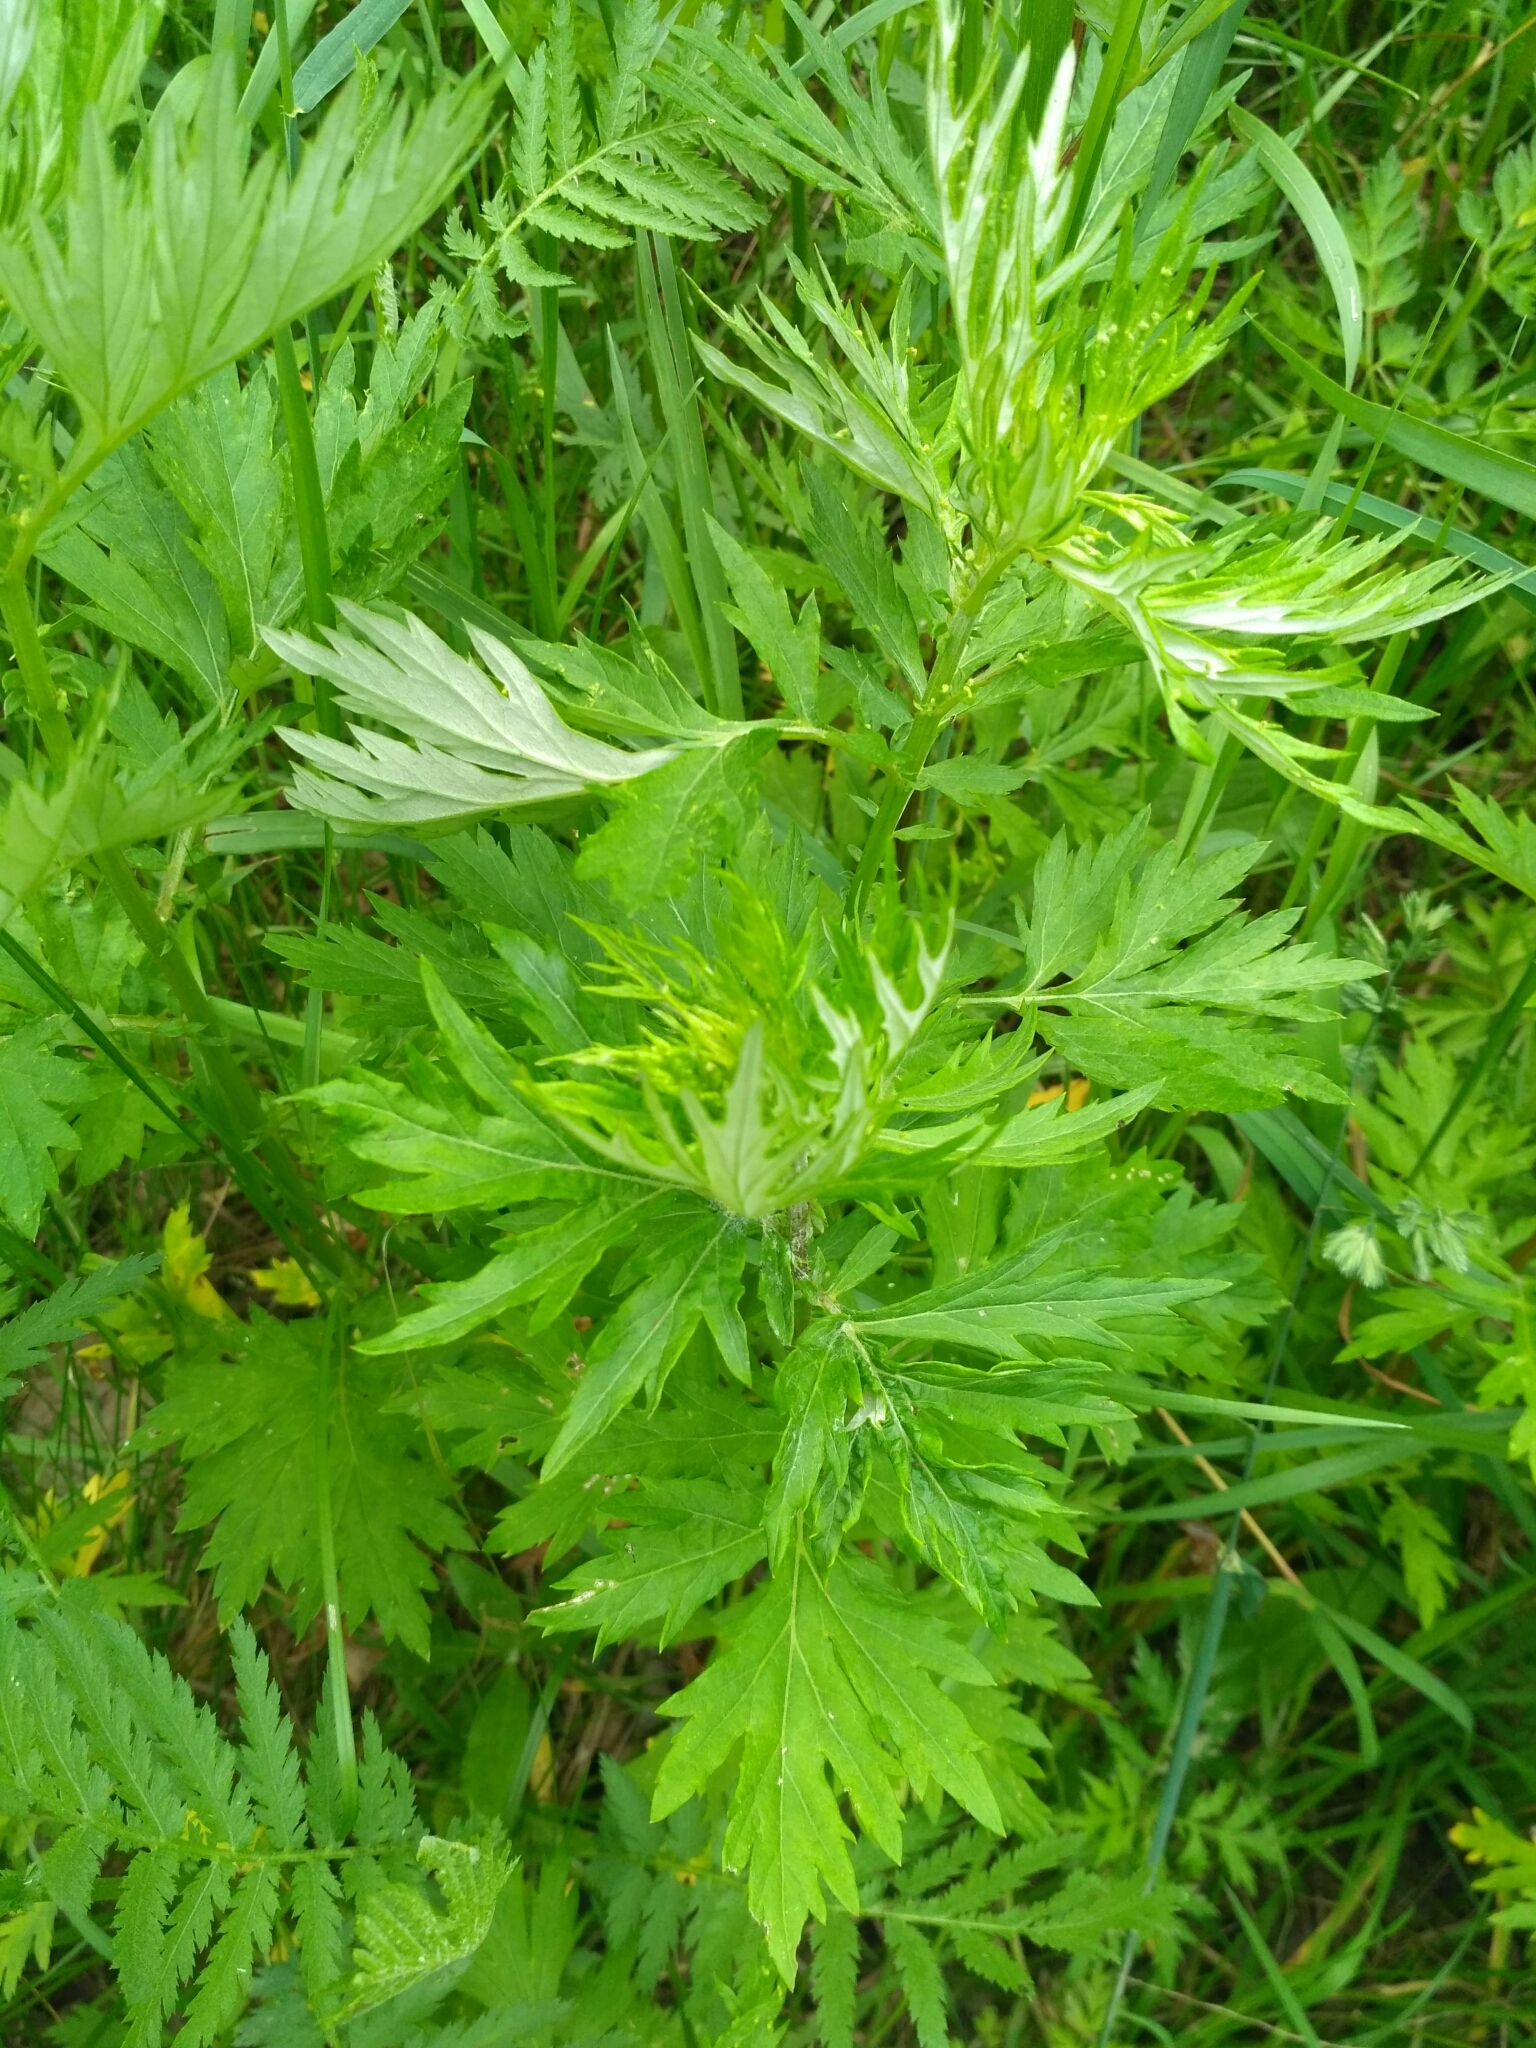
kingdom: Plantae
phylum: Tracheophyta
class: Magnoliopsida
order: Asterales
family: Asteraceae
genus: Artemisia
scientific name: Artemisia vulgaris
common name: Mugwort
